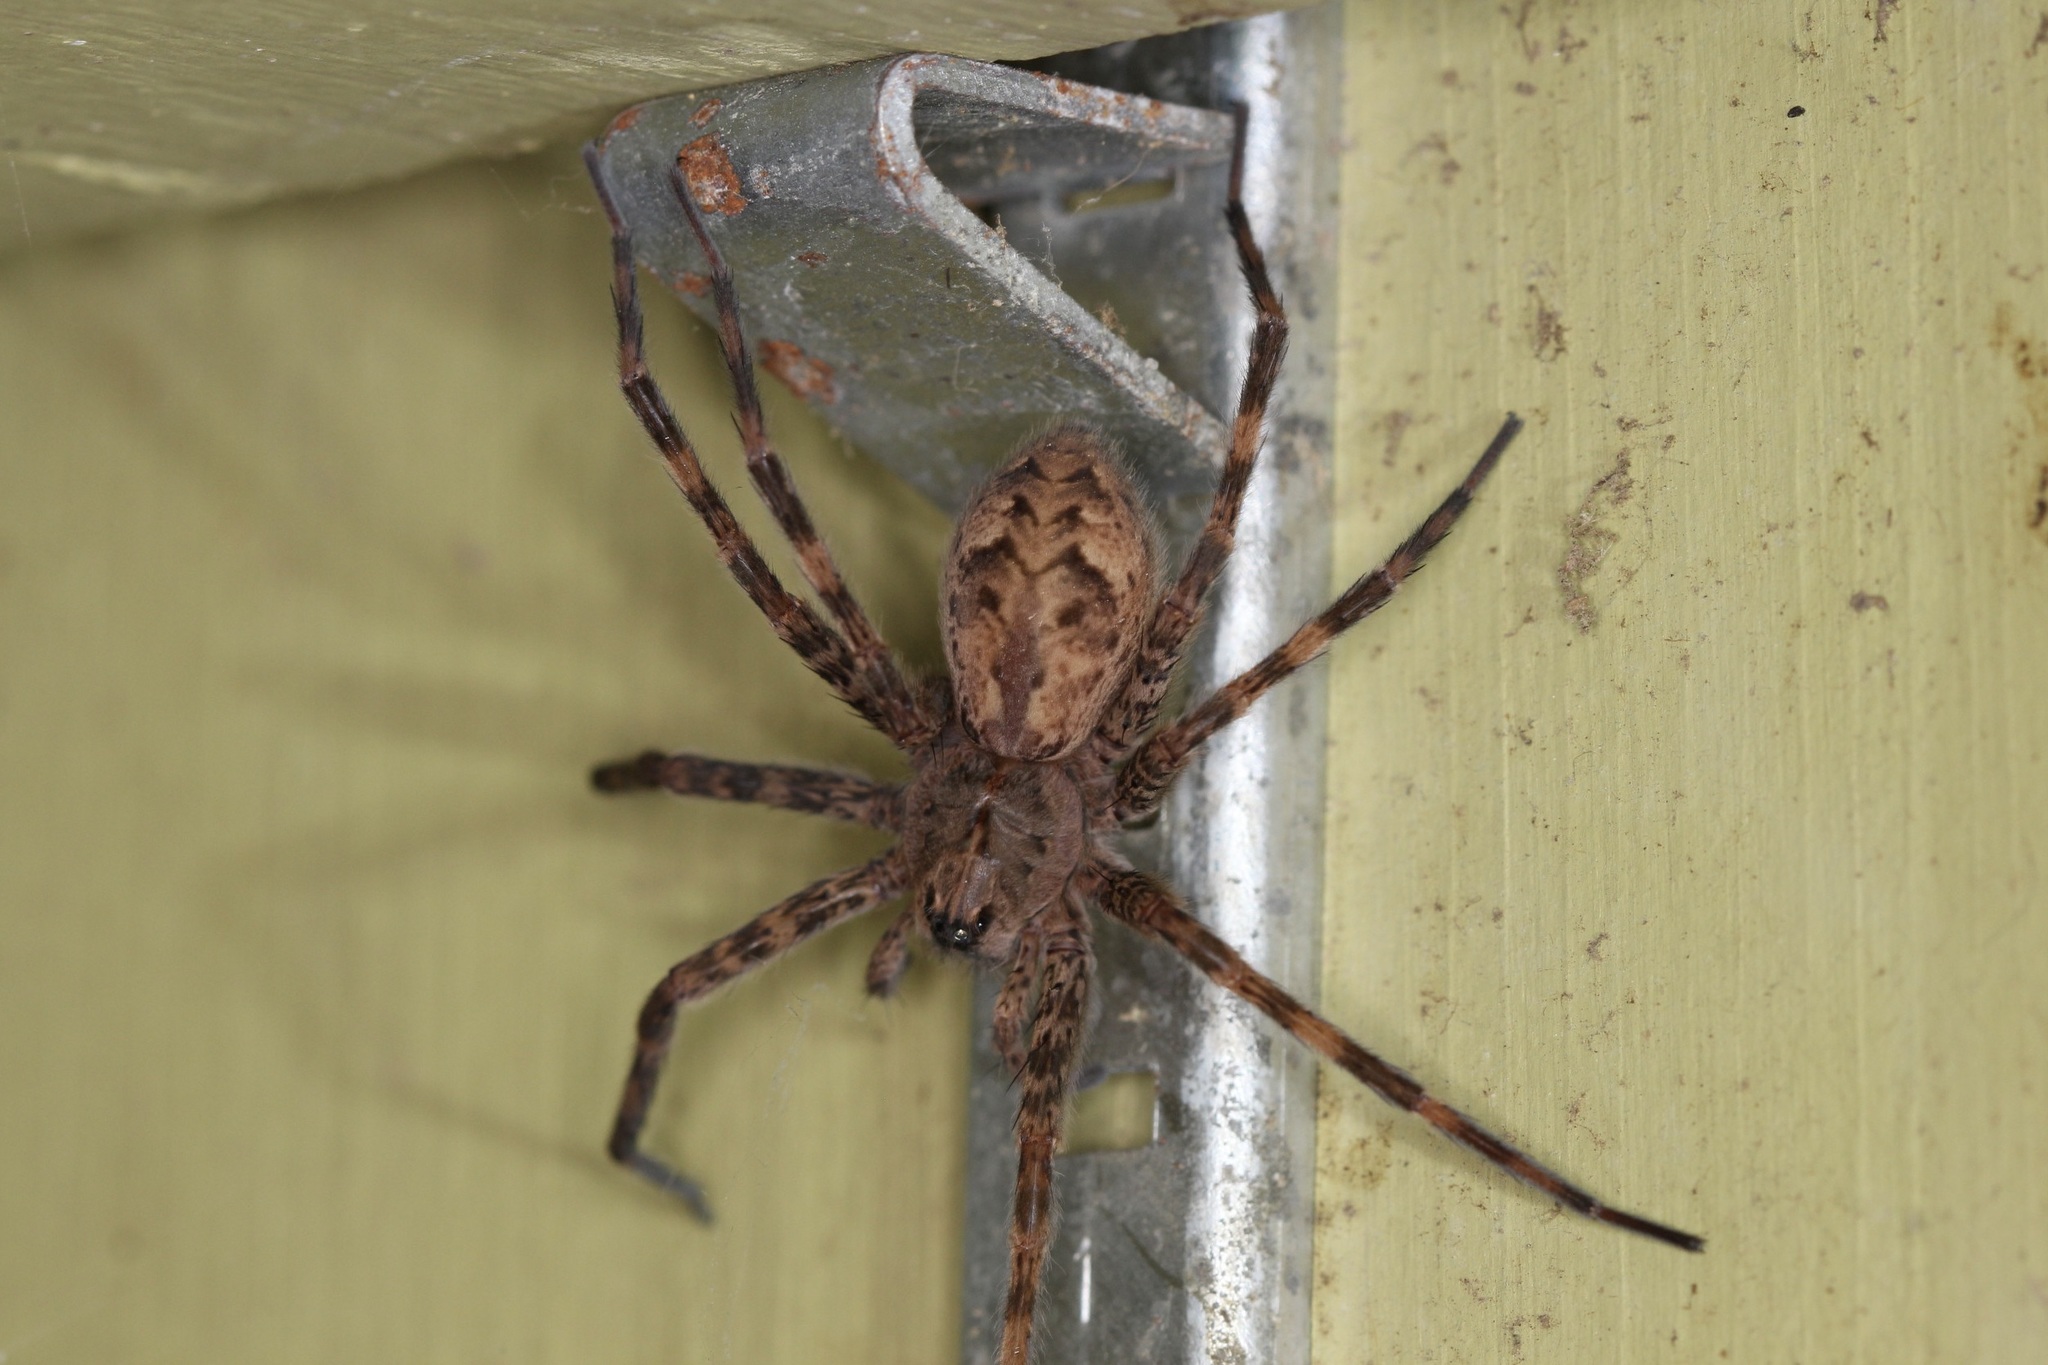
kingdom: Animalia
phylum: Arthropoda
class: Arachnida
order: Araneae
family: Pisauridae
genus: Dolomedes
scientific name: Dolomedes tenebrosus
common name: Dark fishing spider
